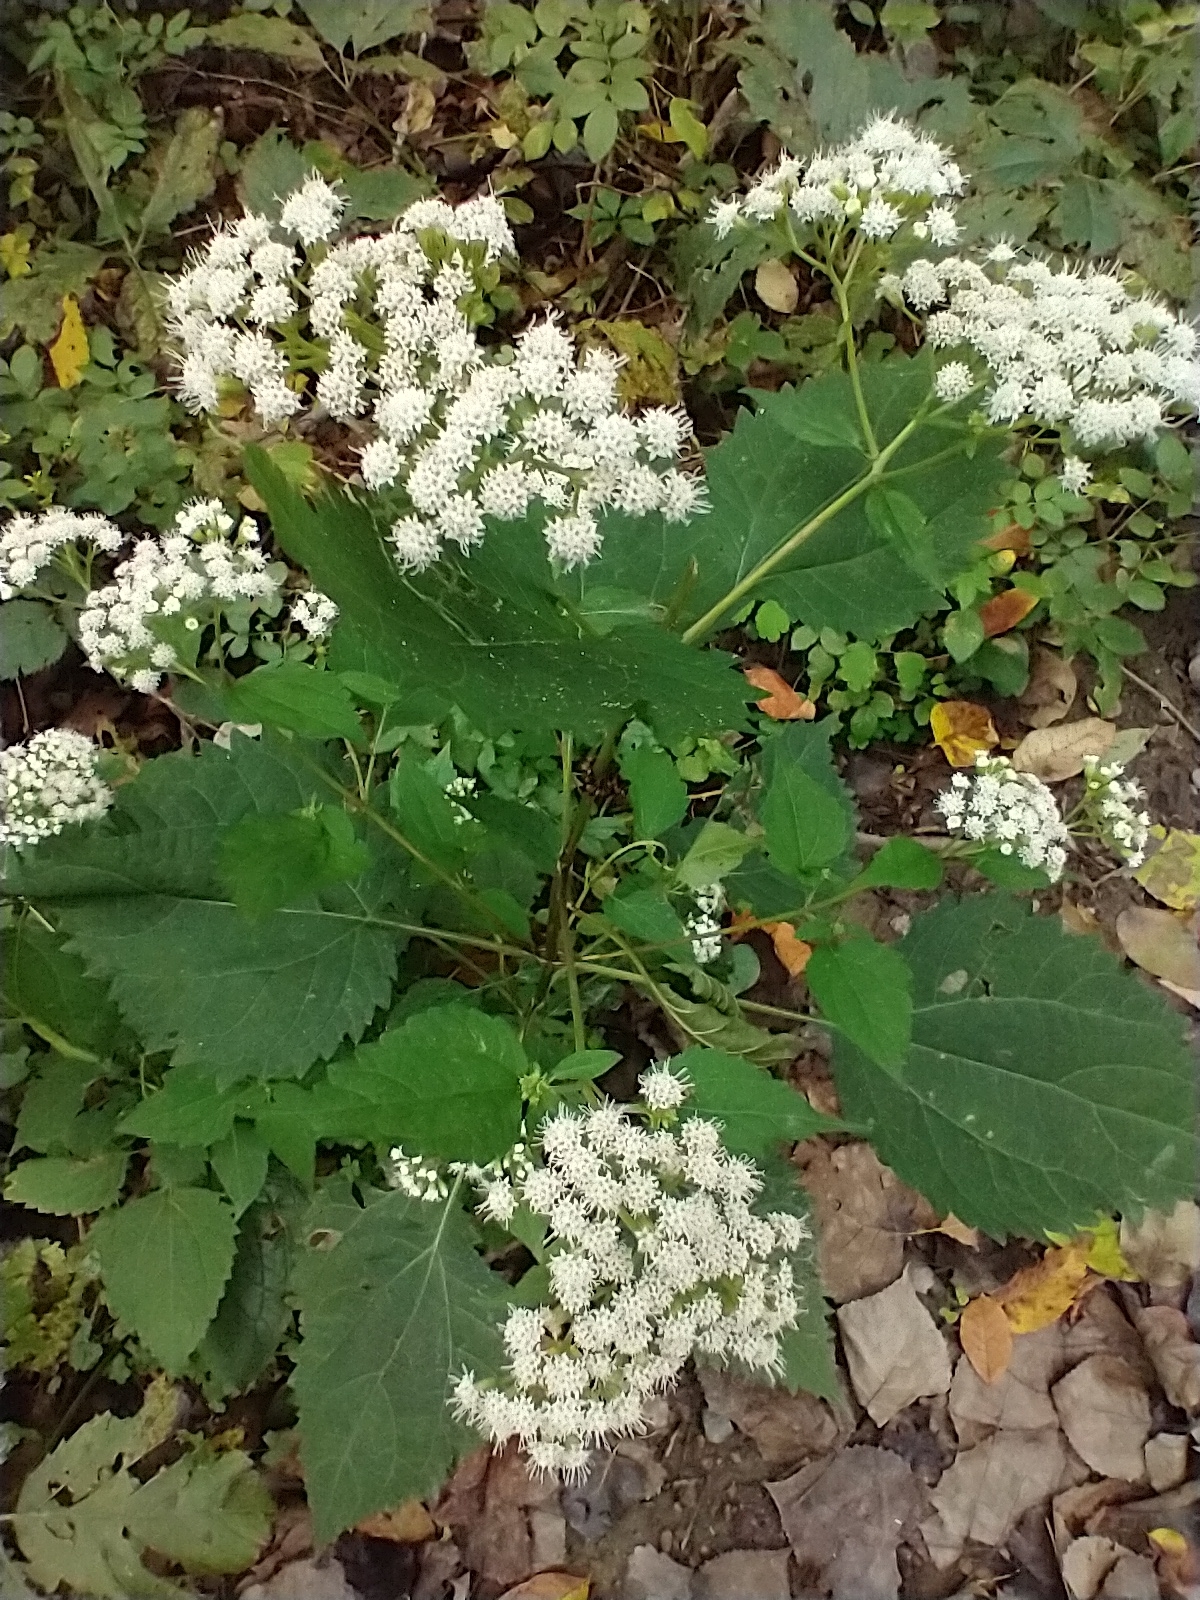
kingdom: Plantae
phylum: Tracheophyta
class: Magnoliopsida
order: Asterales
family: Asteraceae
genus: Ageratina
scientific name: Ageratina altissima
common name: White snakeroot
